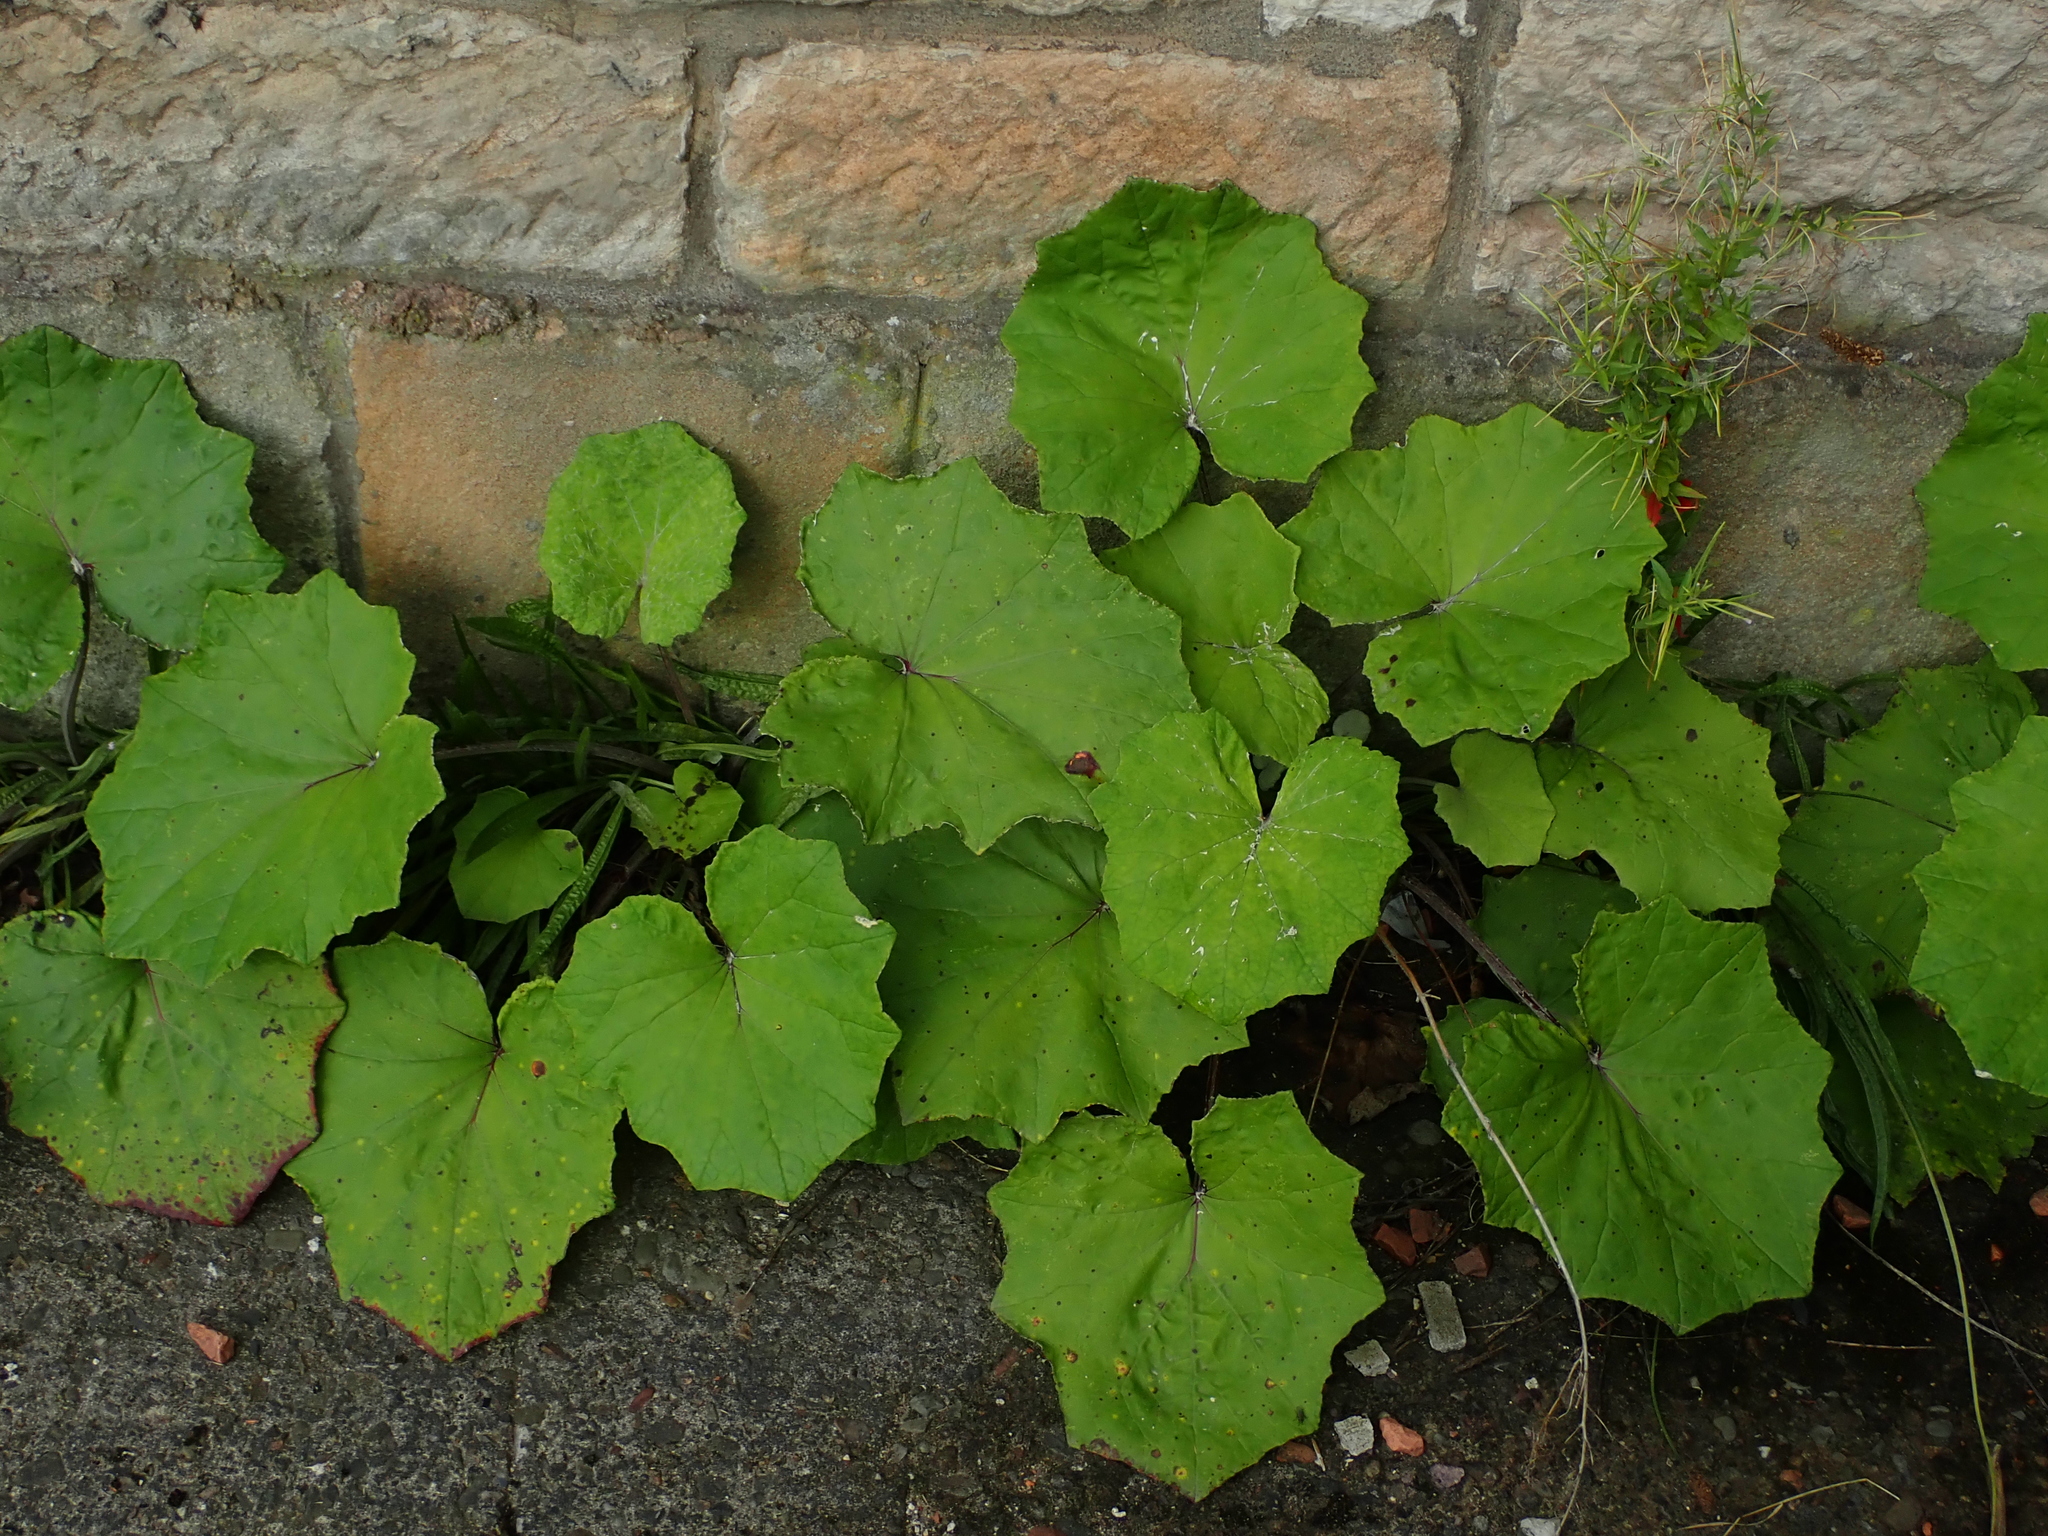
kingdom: Plantae
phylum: Tracheophyta
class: Magnoliopsida
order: Asterales
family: Asteraceae
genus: Tussilago
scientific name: Tussilago farfara
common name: Coltsfoot
